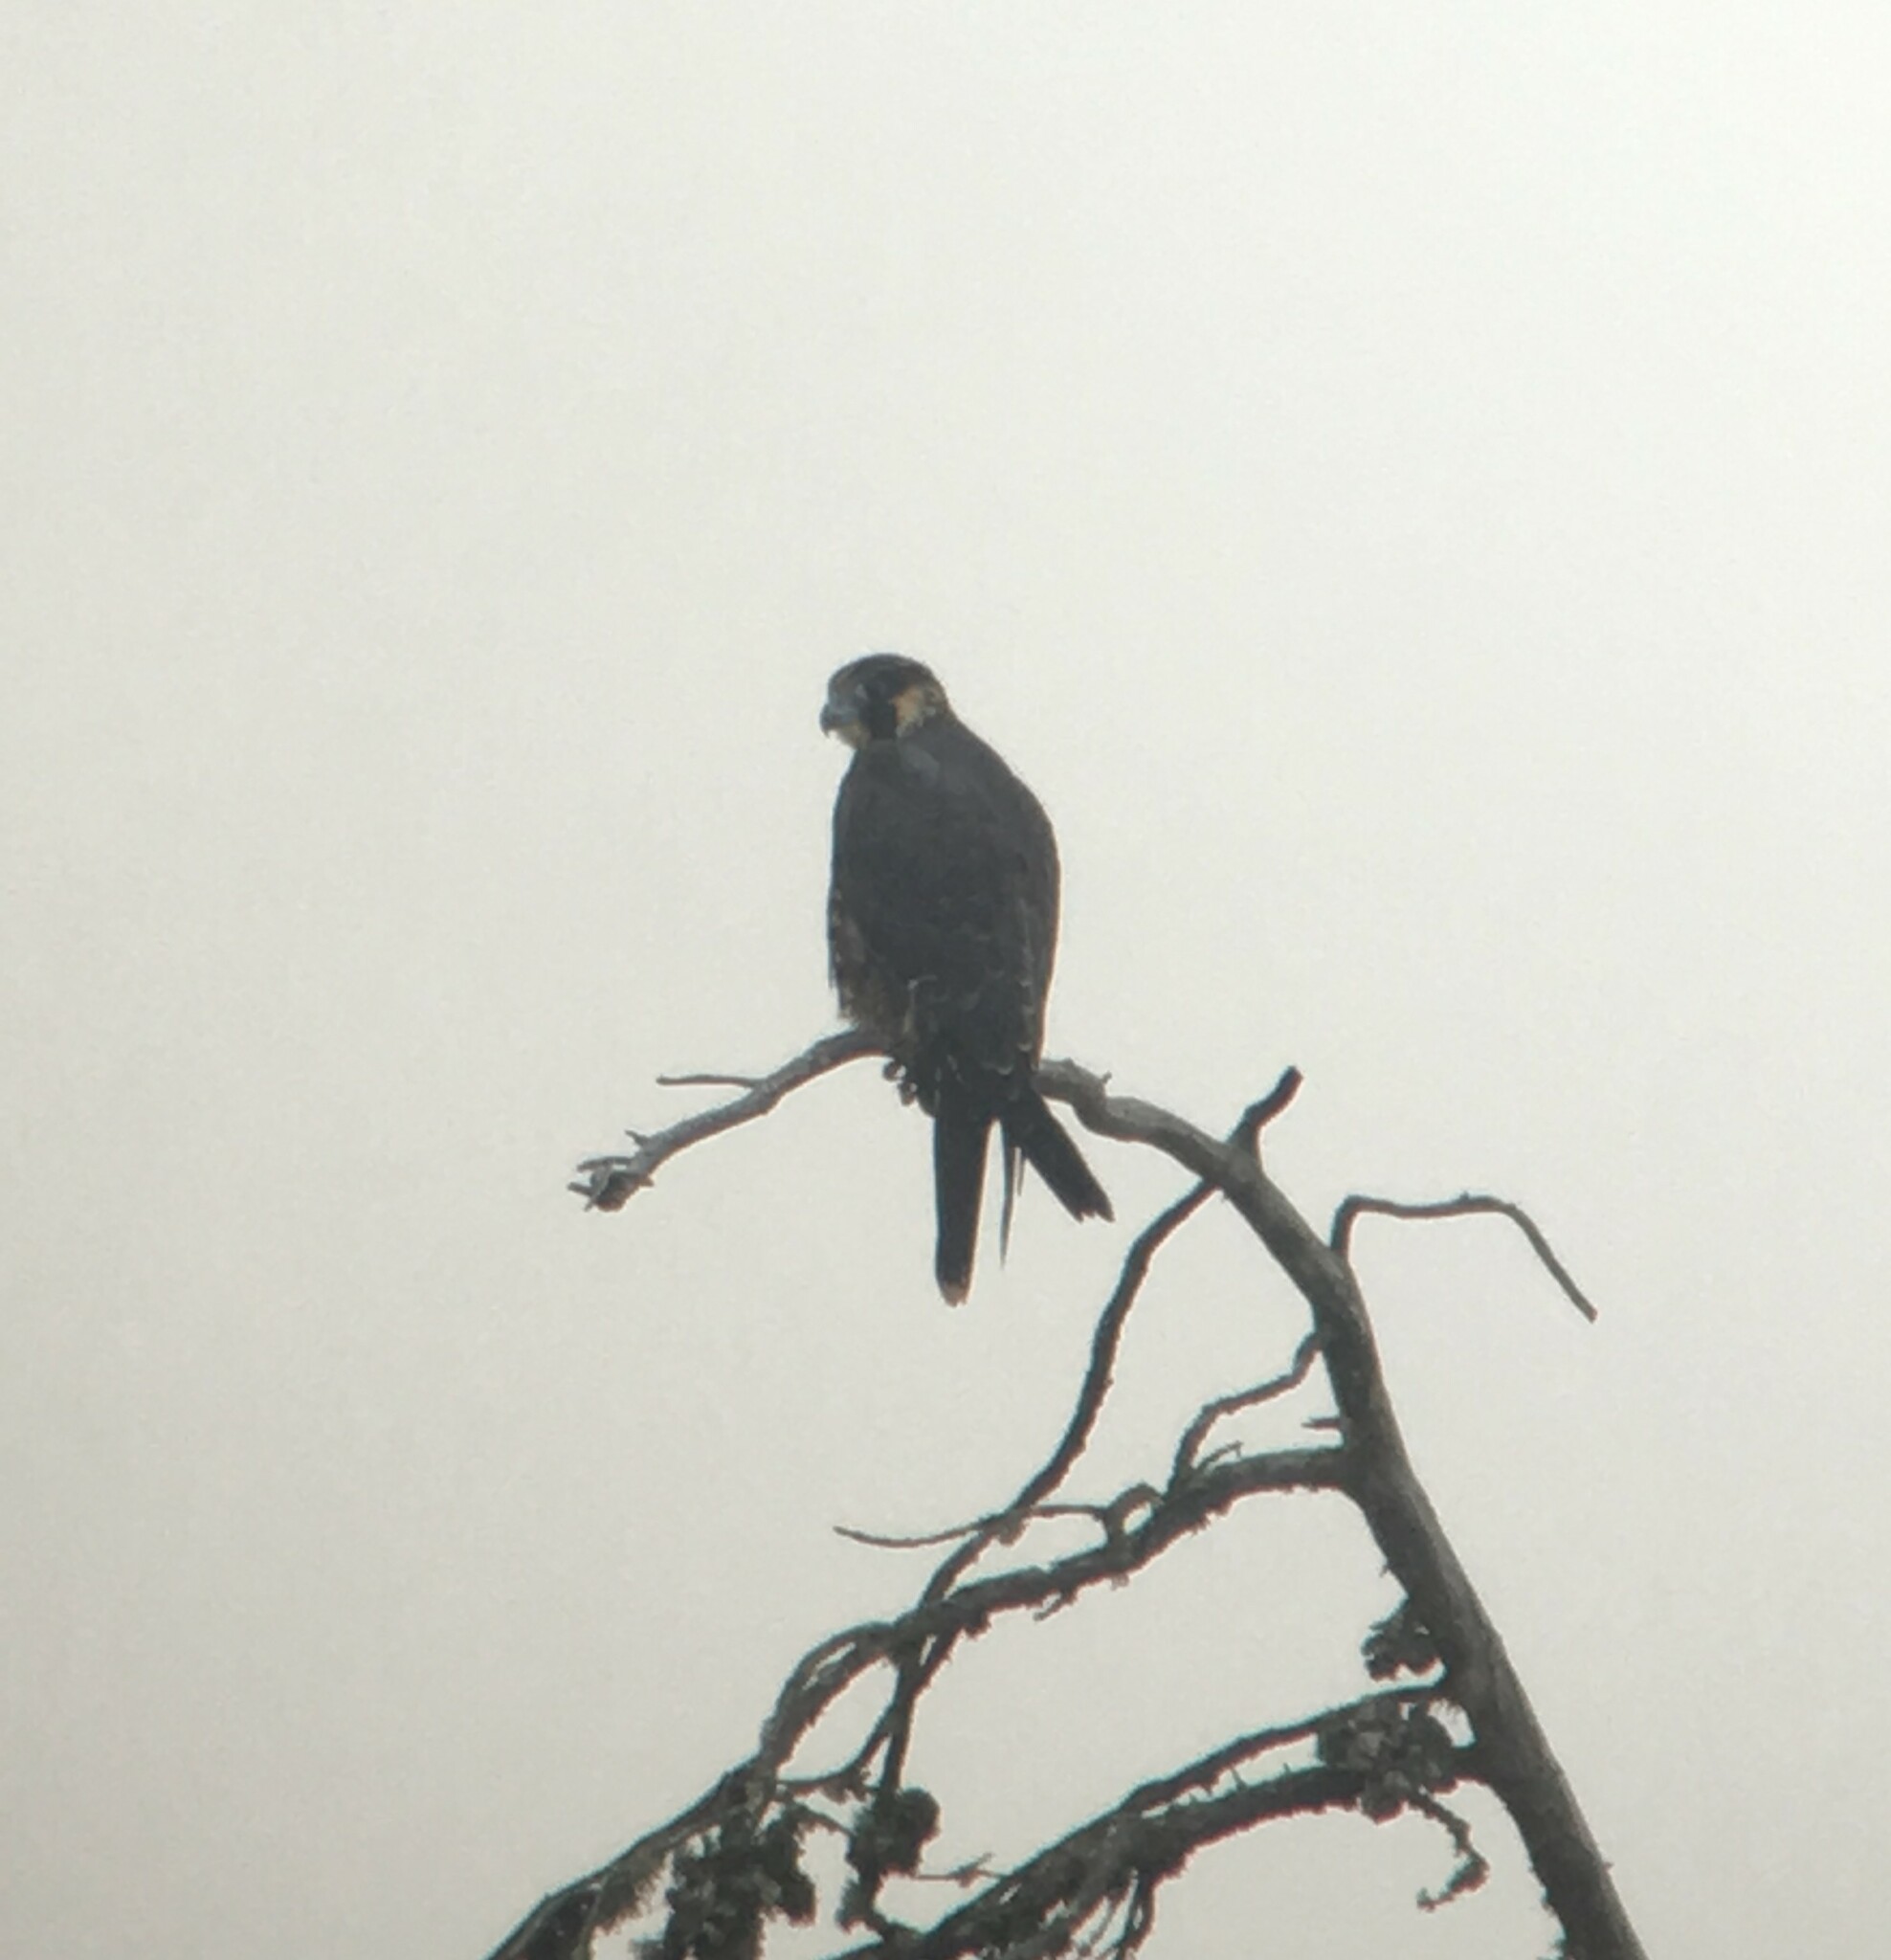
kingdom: Animalia
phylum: Chordata
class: Aves
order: Falconiformes
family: Falconidae
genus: Falco
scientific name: Falco peregrinus
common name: Peregrine falcon
